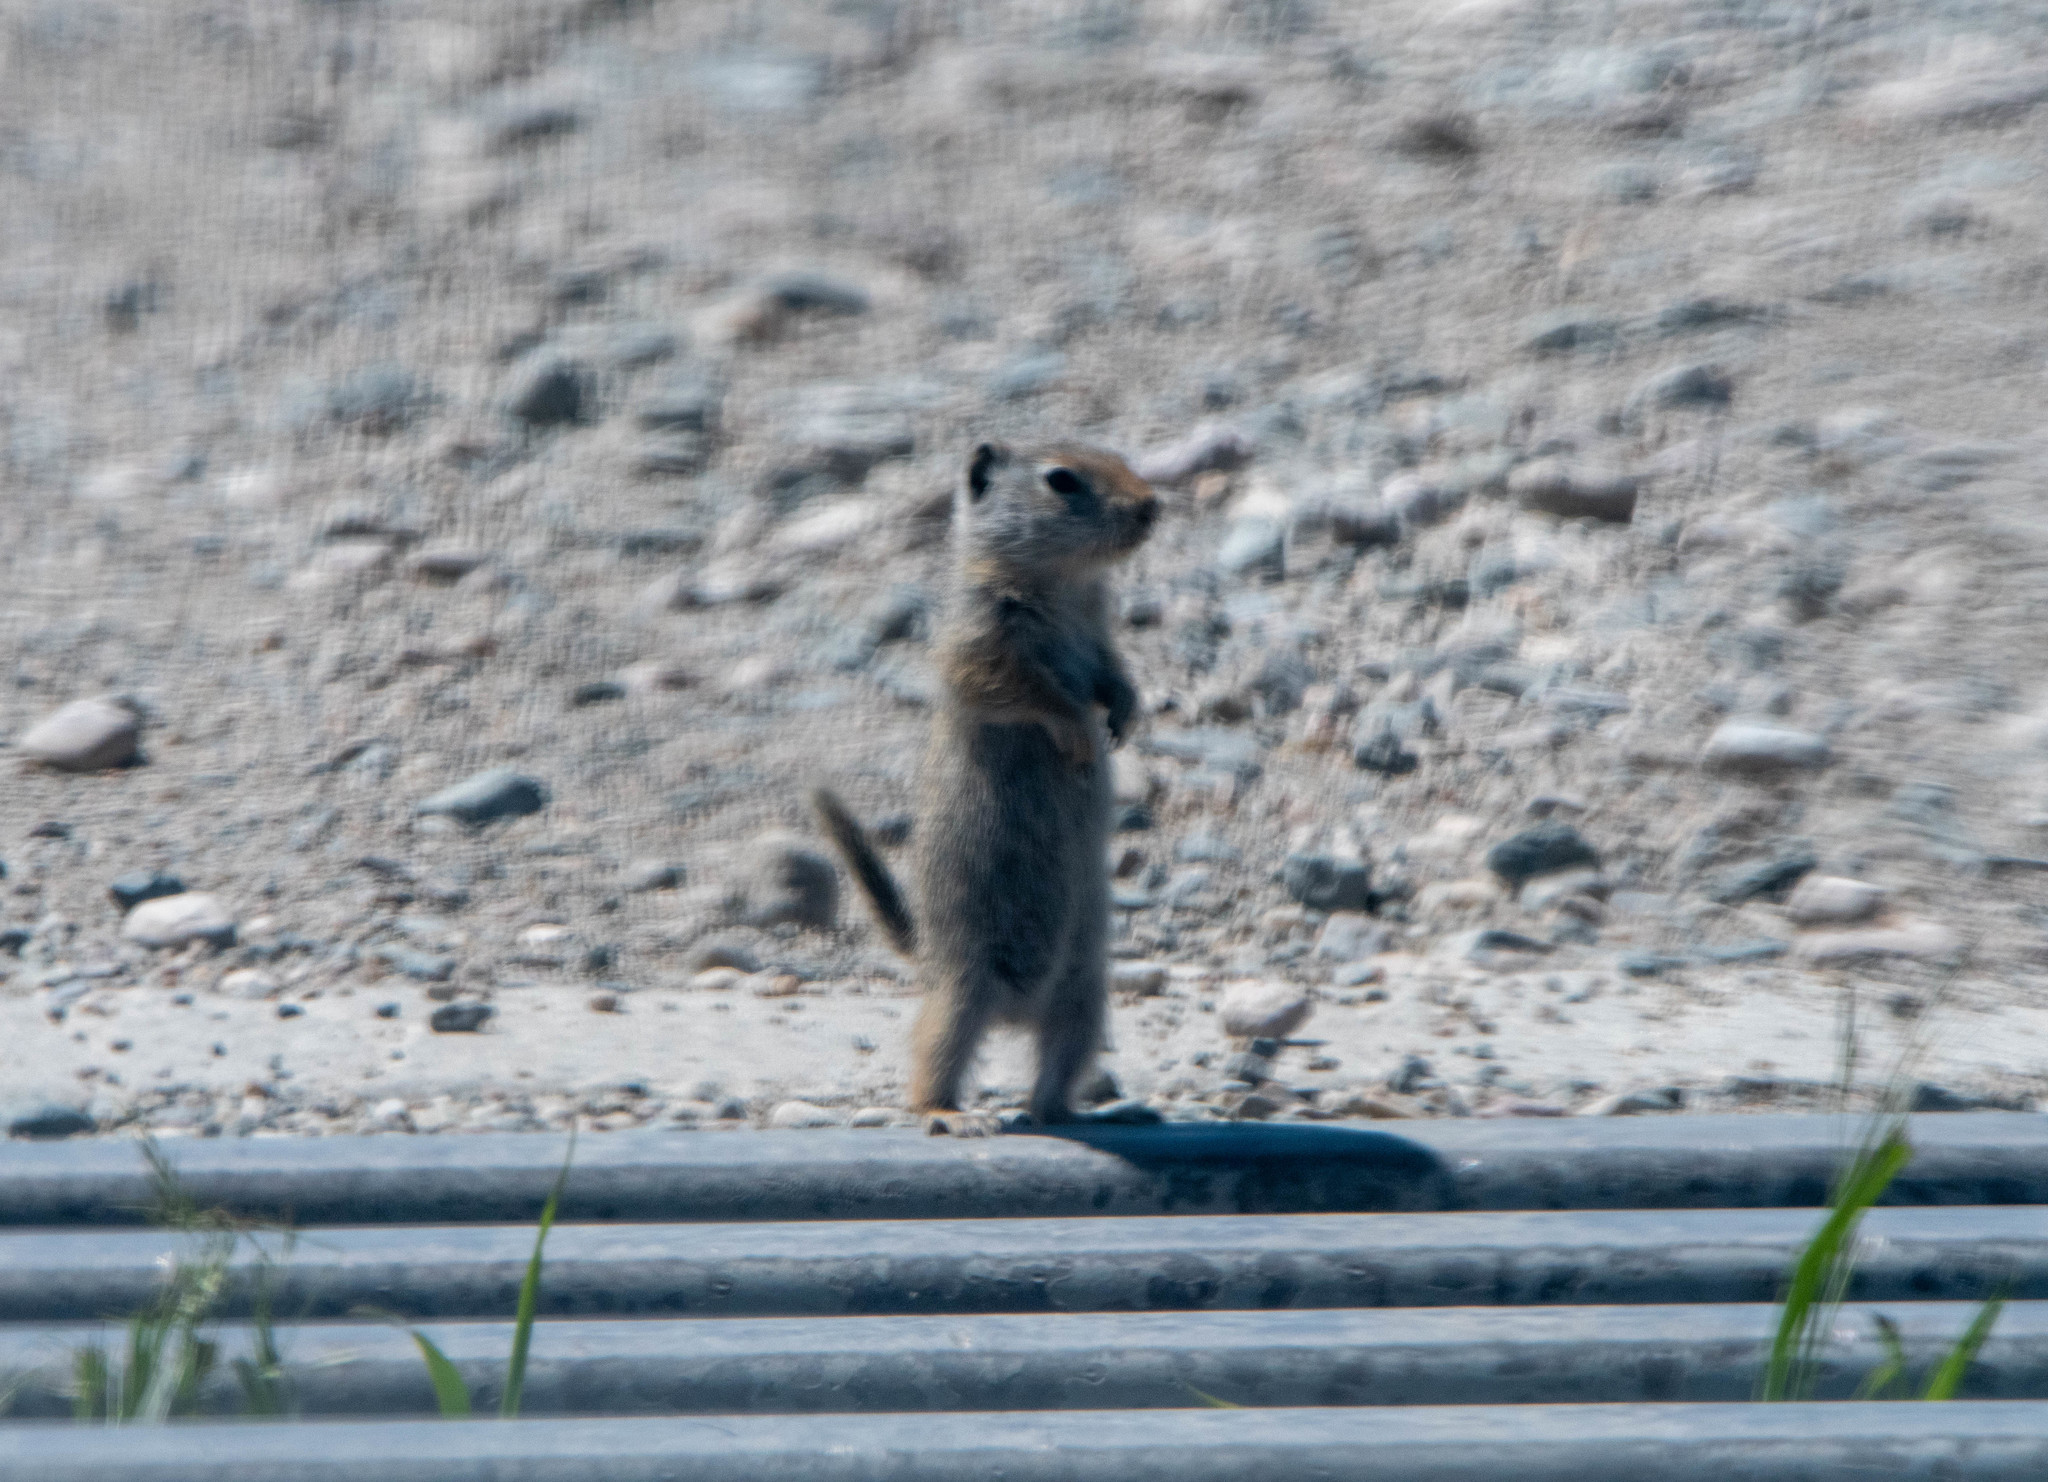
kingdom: Animalia
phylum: Chordata
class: Mammalia
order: Rodentia
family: Sciuridae
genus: Urocitellus
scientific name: Urocitellus armatus
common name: Uinta ground squirrel
